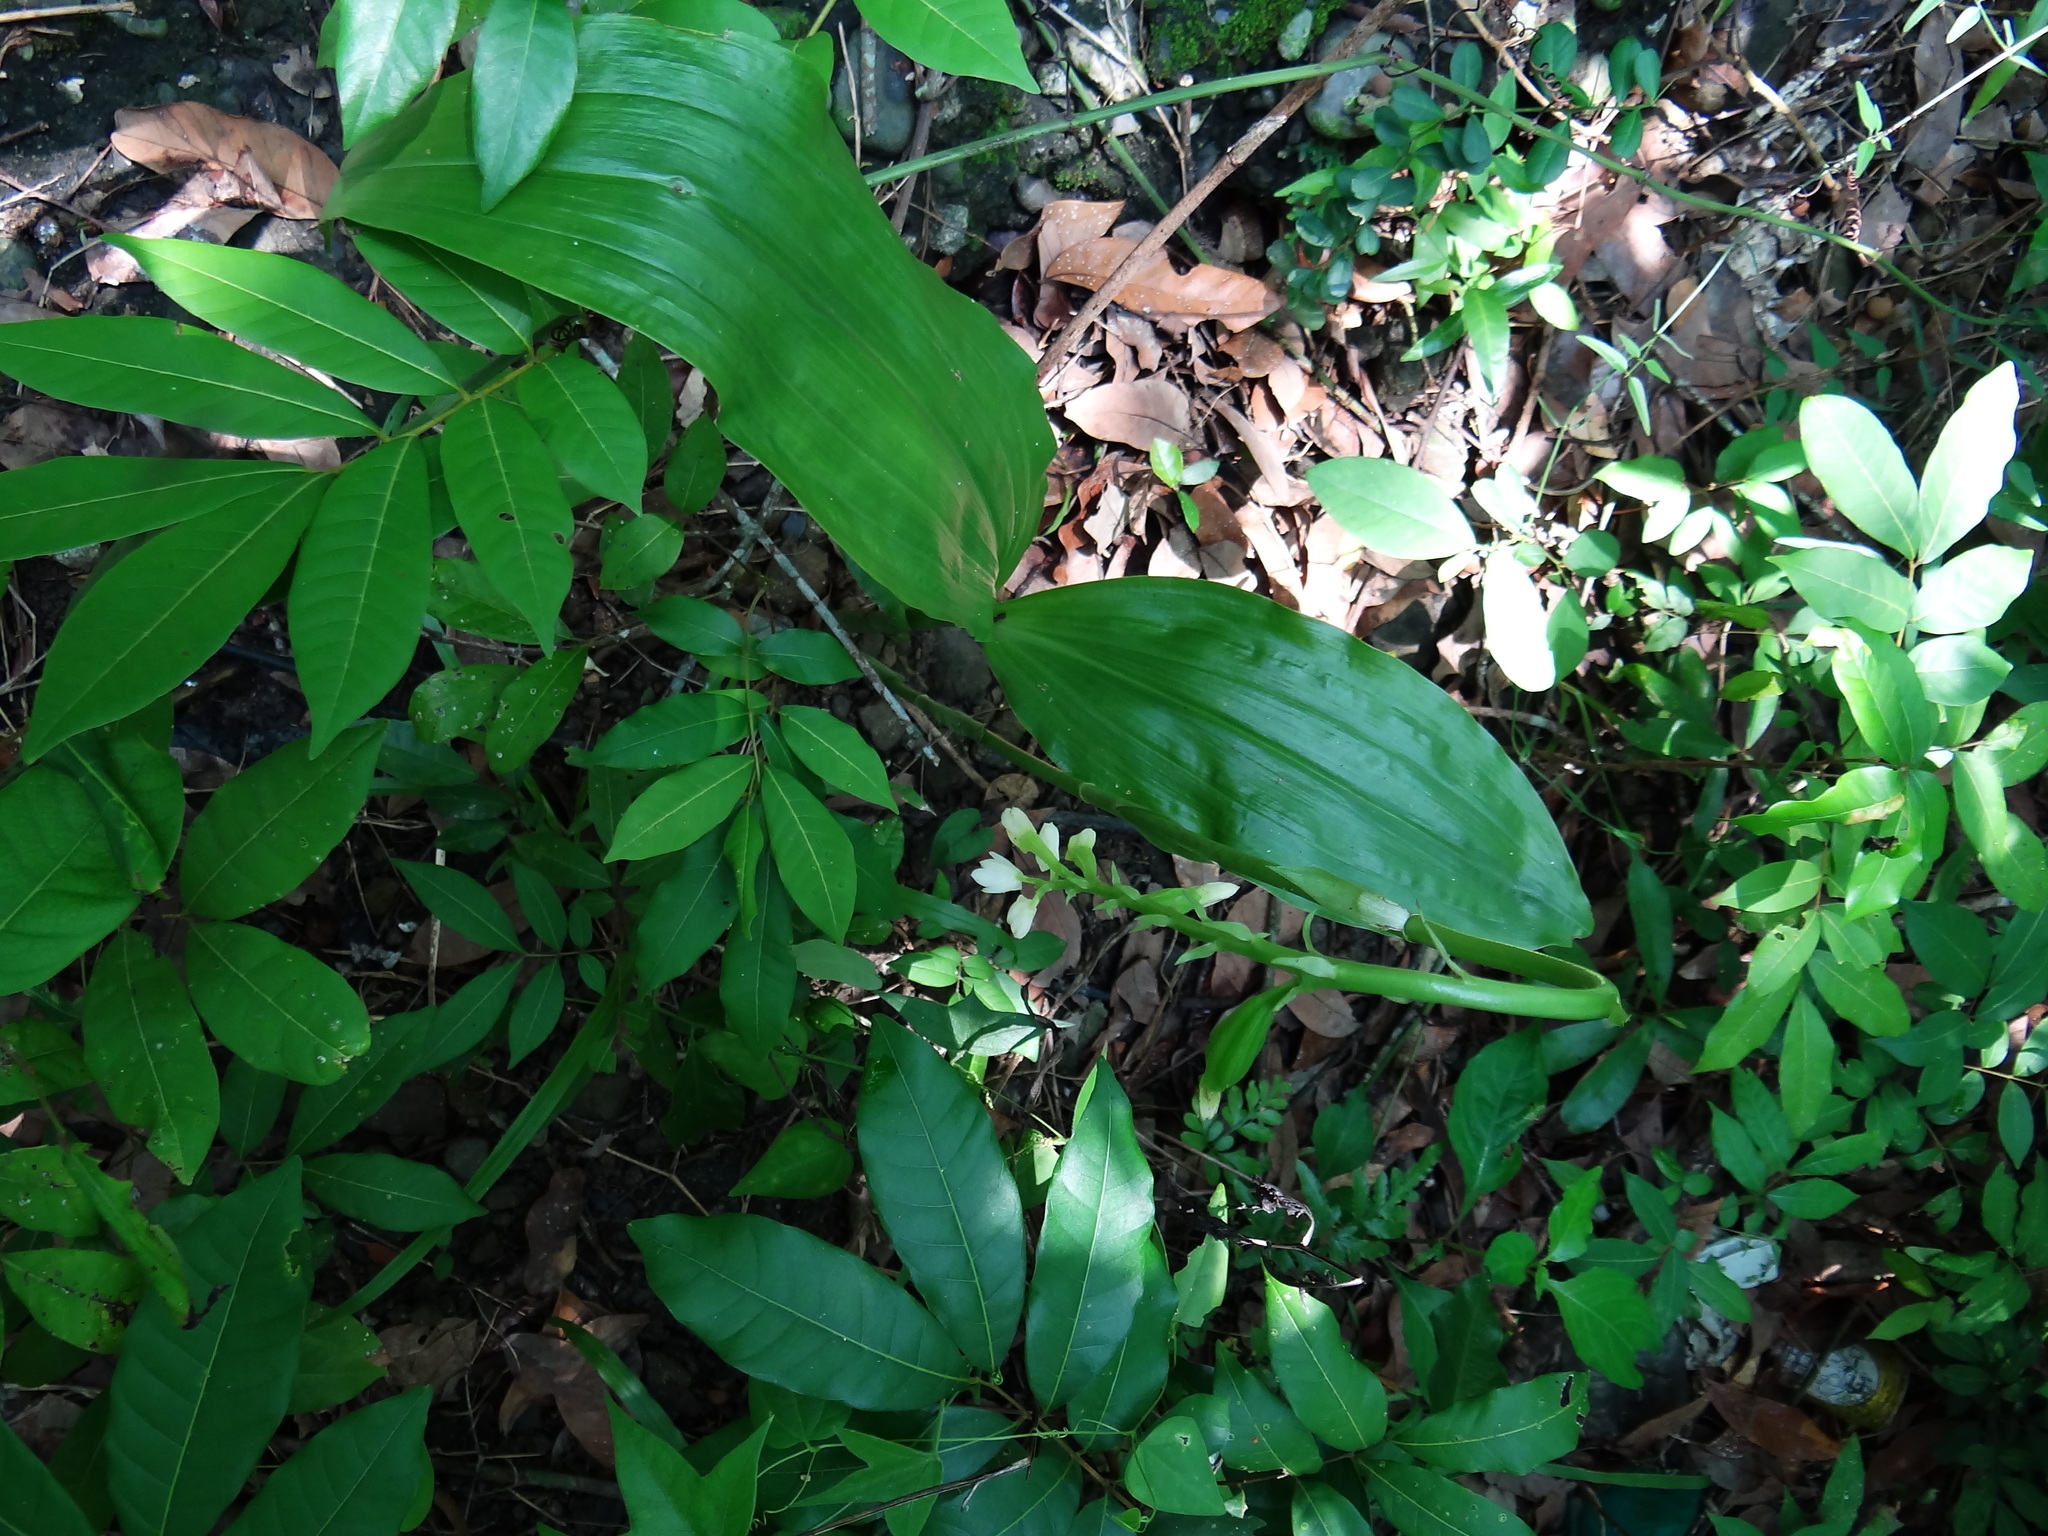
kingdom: Plantae
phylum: Tracheophyta
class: Liliopsida
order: Asparagales
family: Orchidaceae
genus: Eulophia
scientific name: Eulophia cernua
